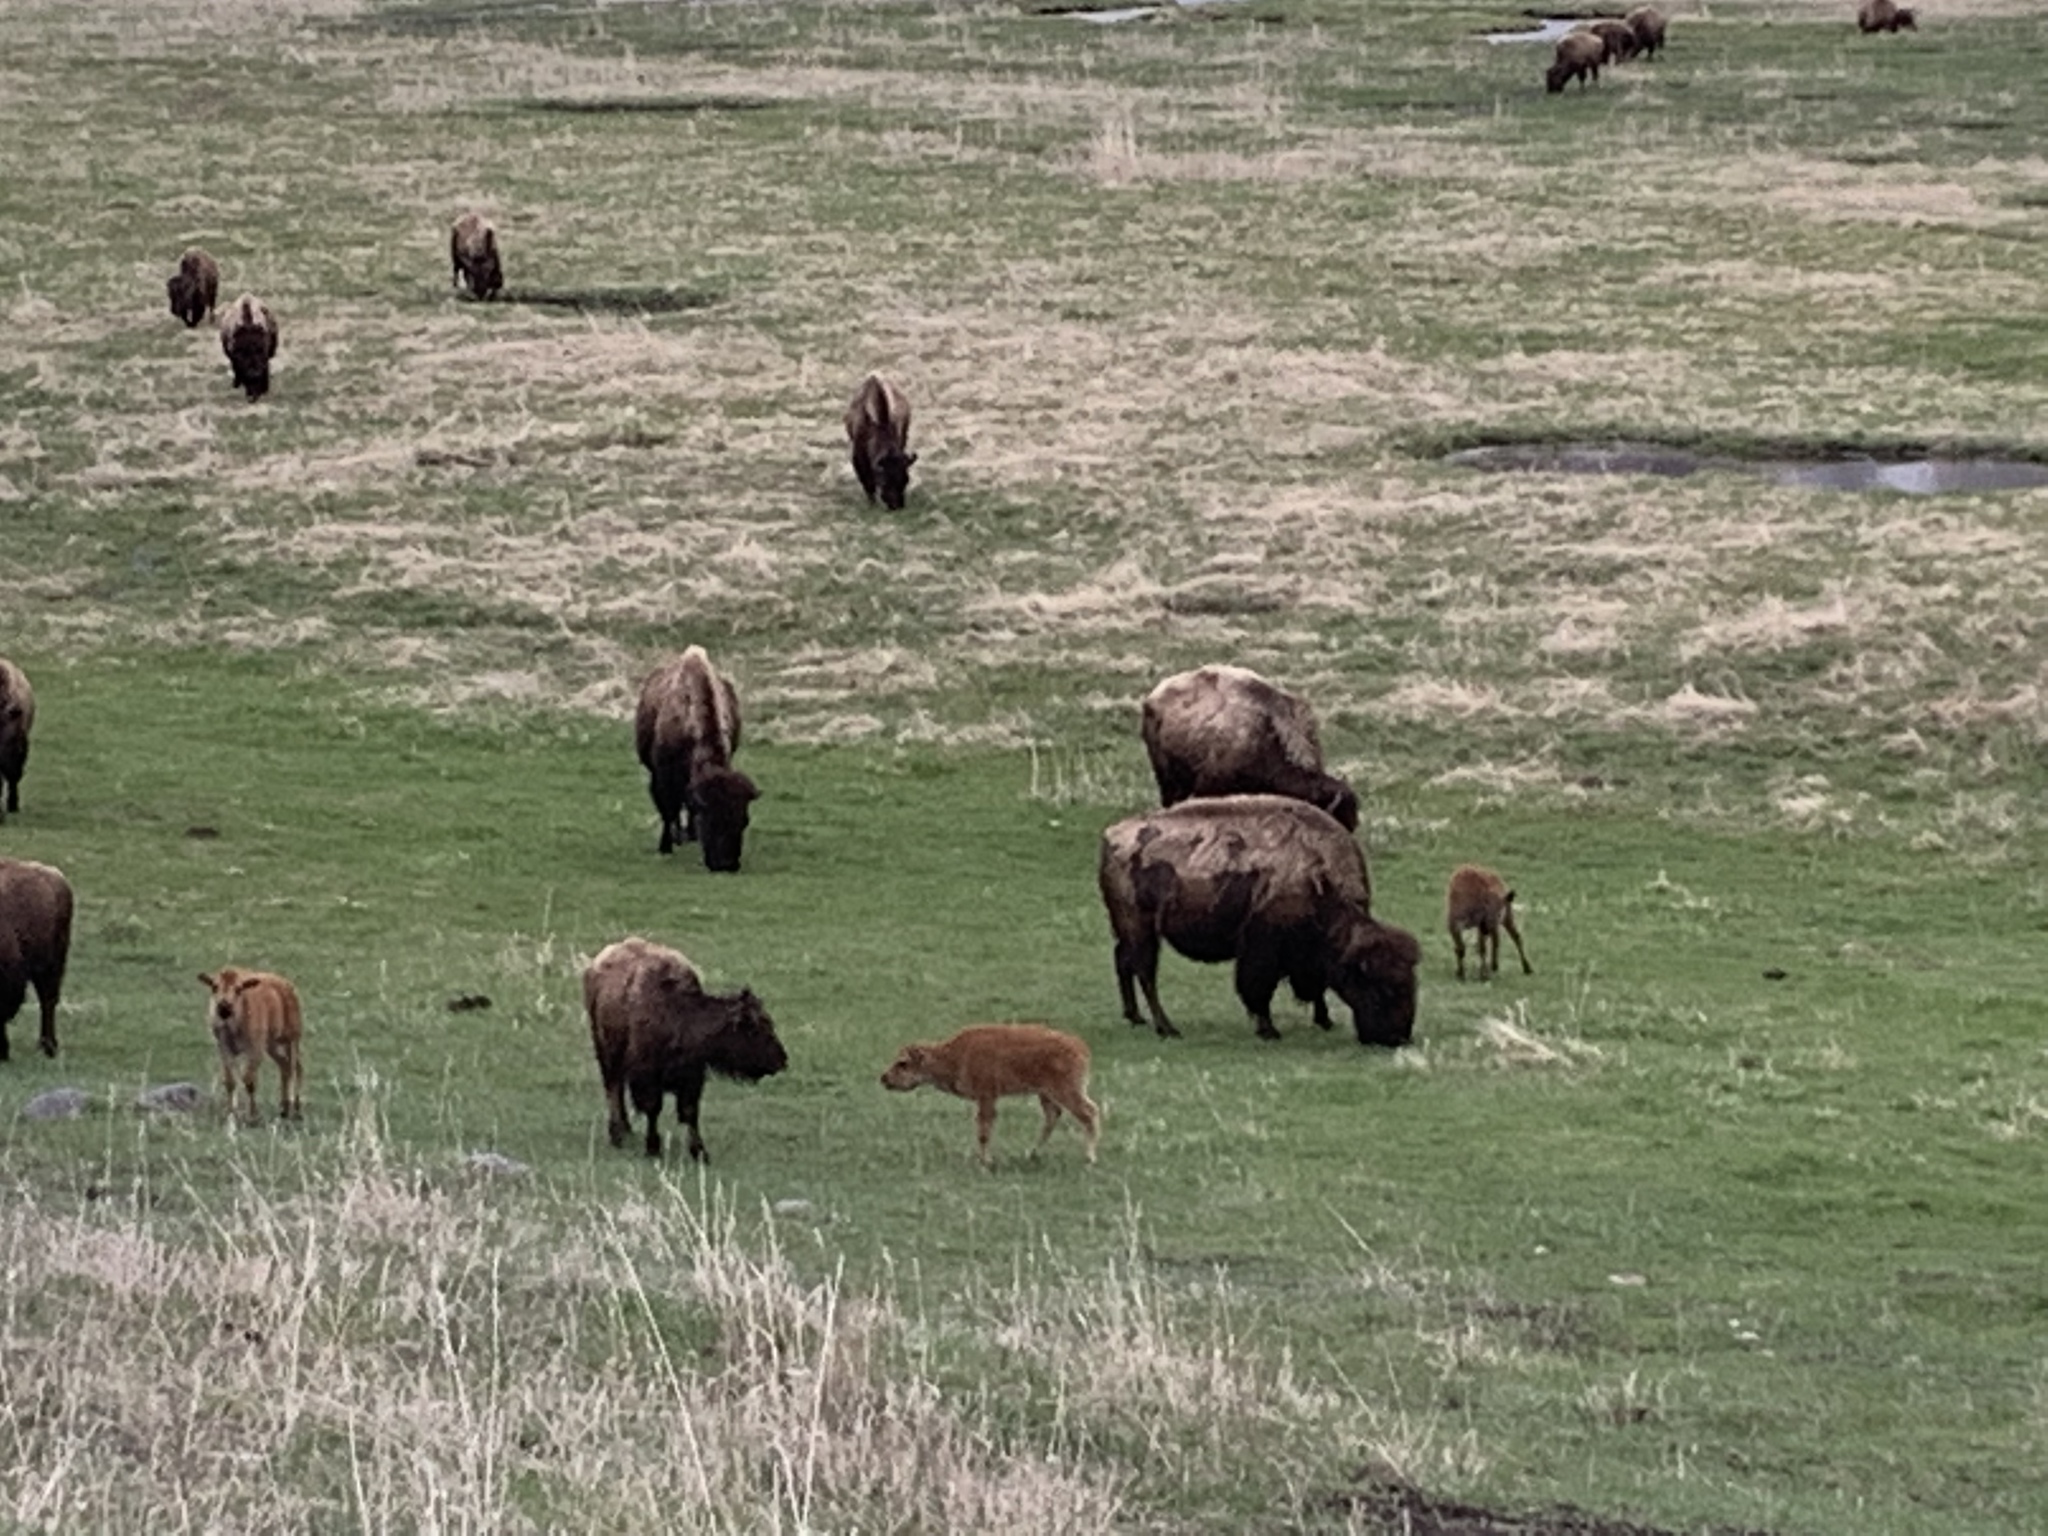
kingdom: Animalia
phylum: Chordata
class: Mammalia
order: Artiodactyla
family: Bovidae
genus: Bison
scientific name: Bison bison
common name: American bison
